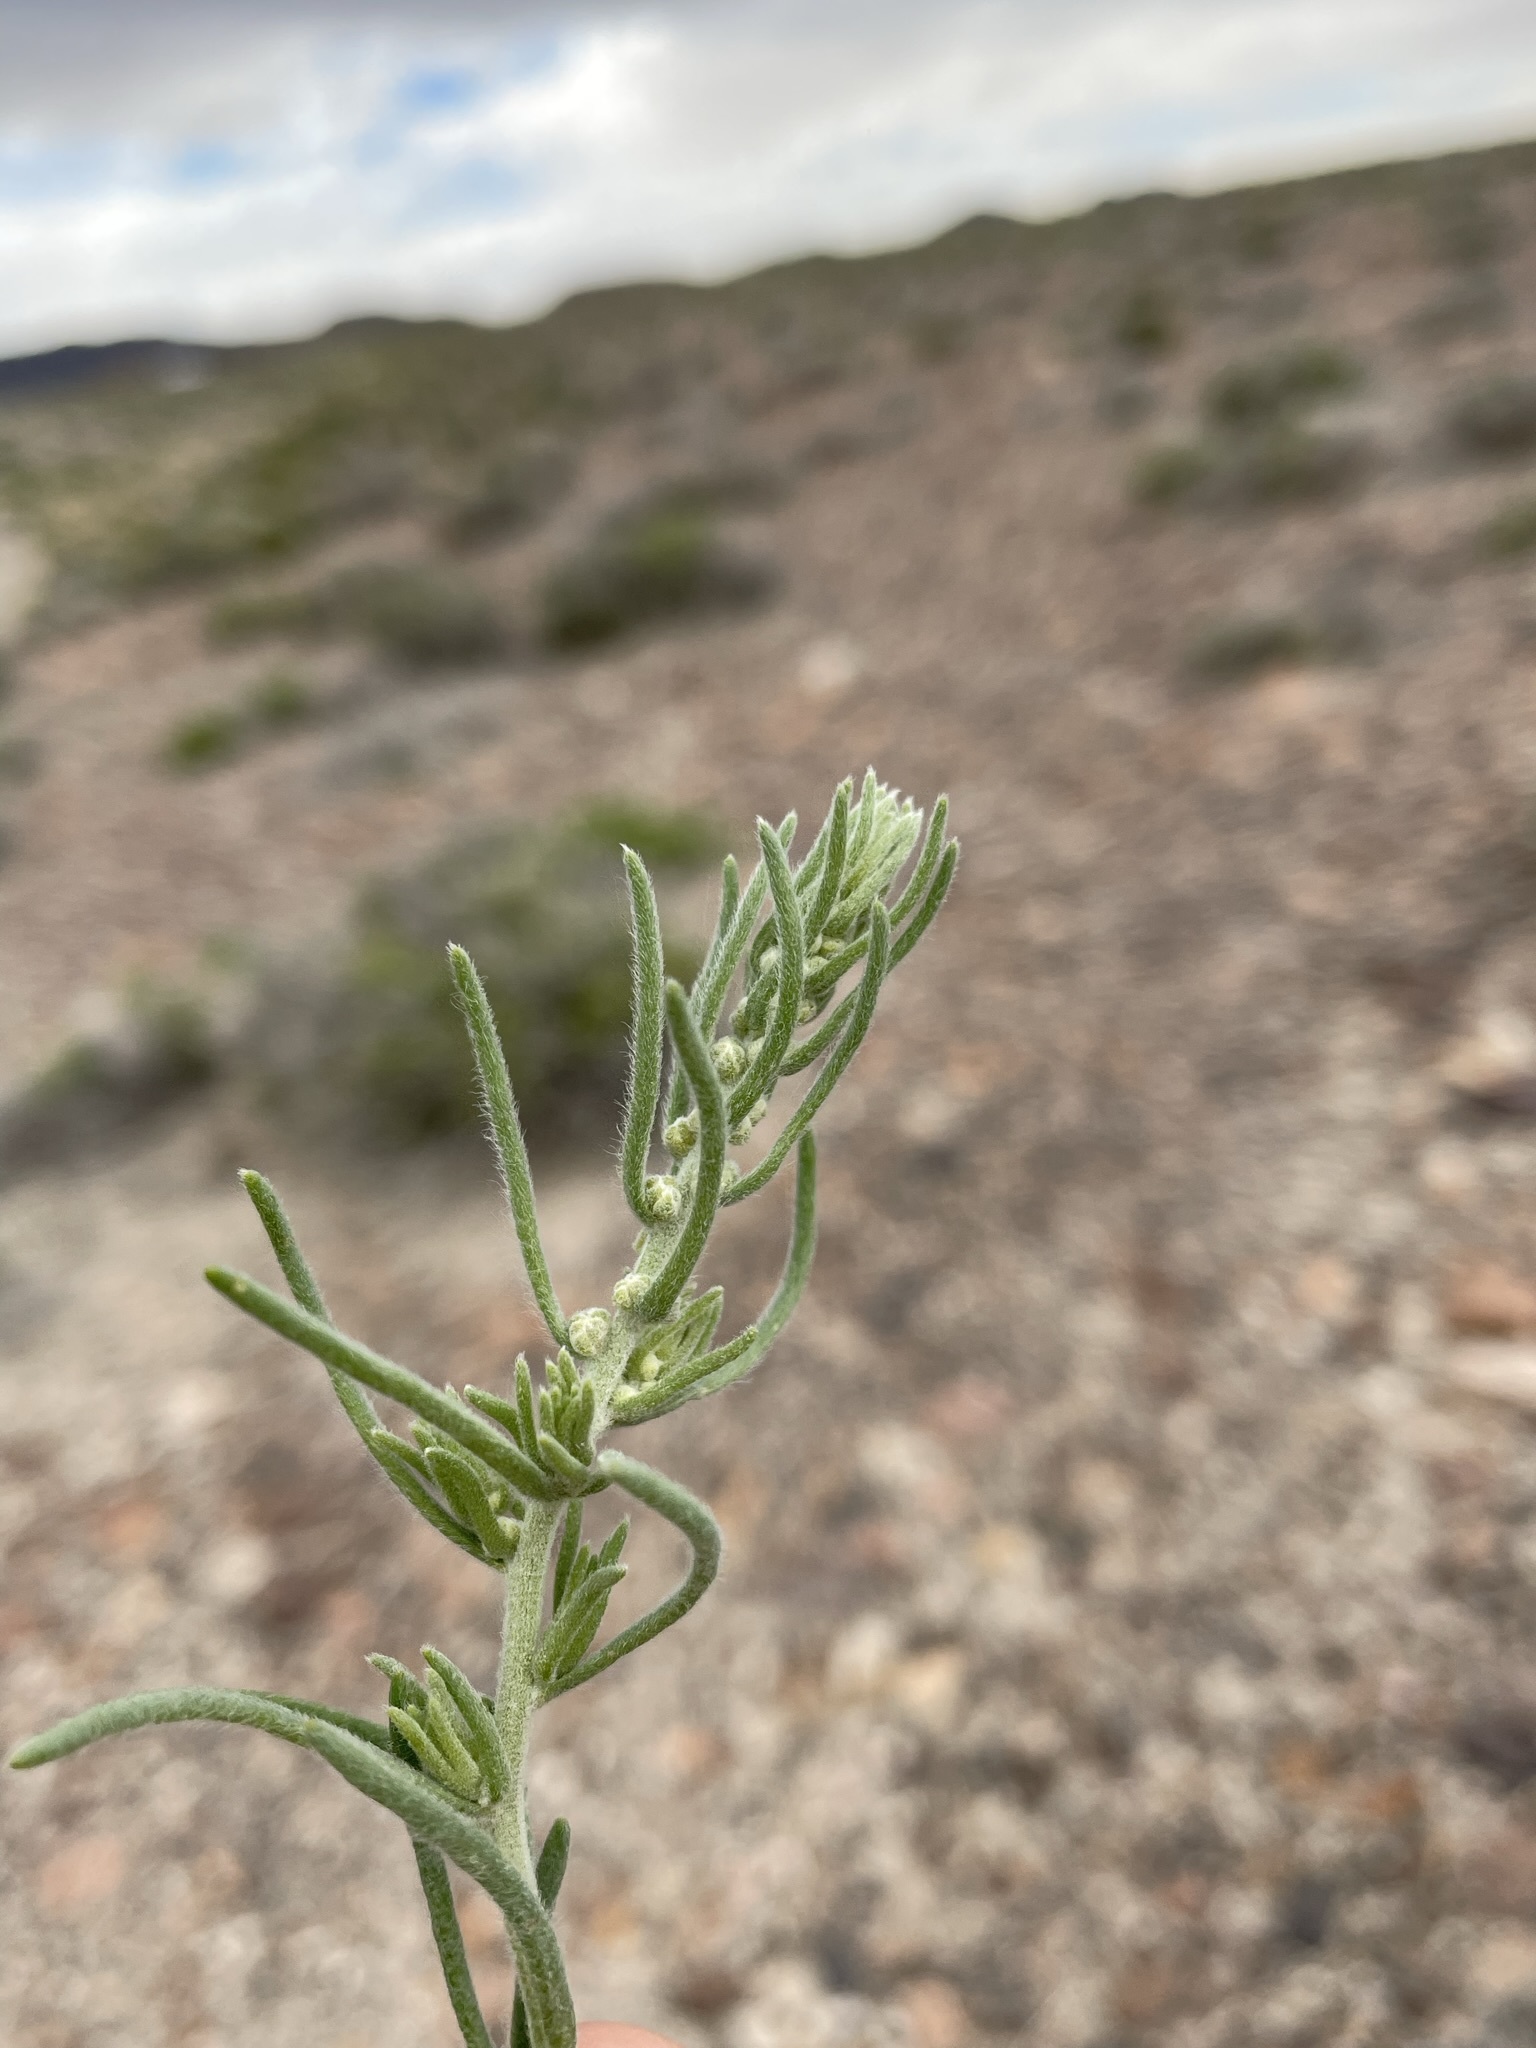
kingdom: Plantae
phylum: Tracheophyta
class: Magnoliopsida
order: Caryophyllales
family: Amaranthaceae
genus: Neokochia
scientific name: Neokochia americana
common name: Perennial summer-cypress
